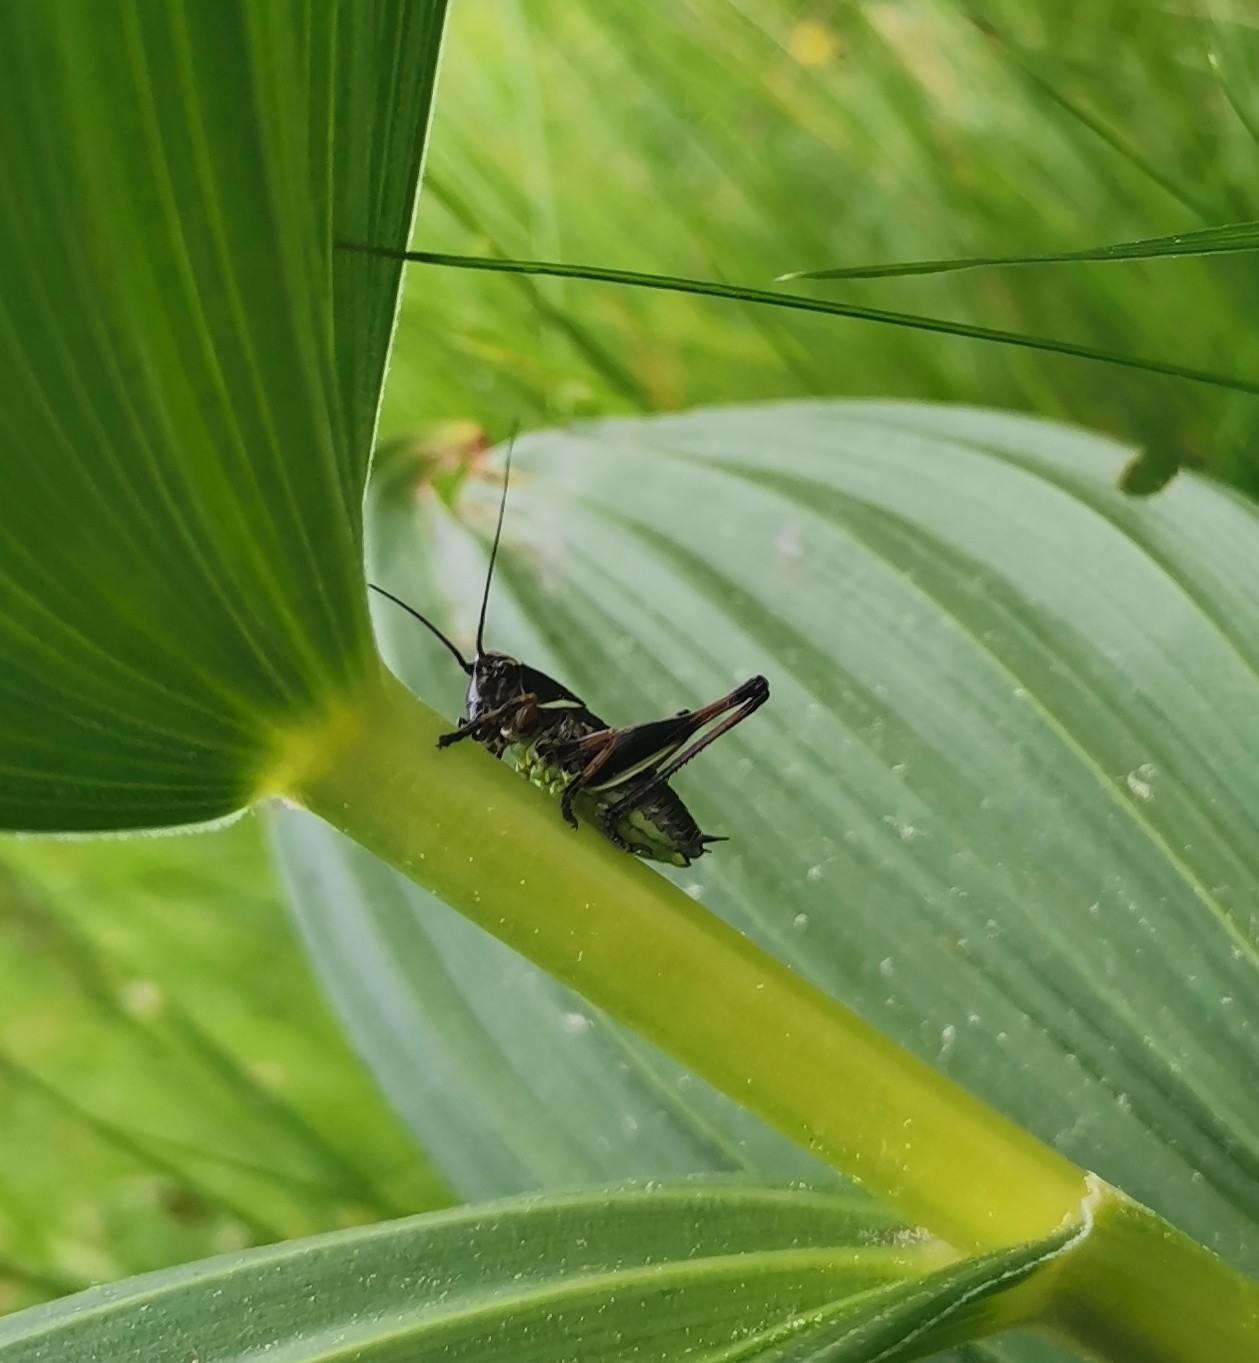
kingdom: Animalia
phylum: Arthropoda
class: Insecta
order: Orthoptera
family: Tettigoniidae
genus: Pholidoptera
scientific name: Pholidoptera aptera
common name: Alpine dark bush-cricket
